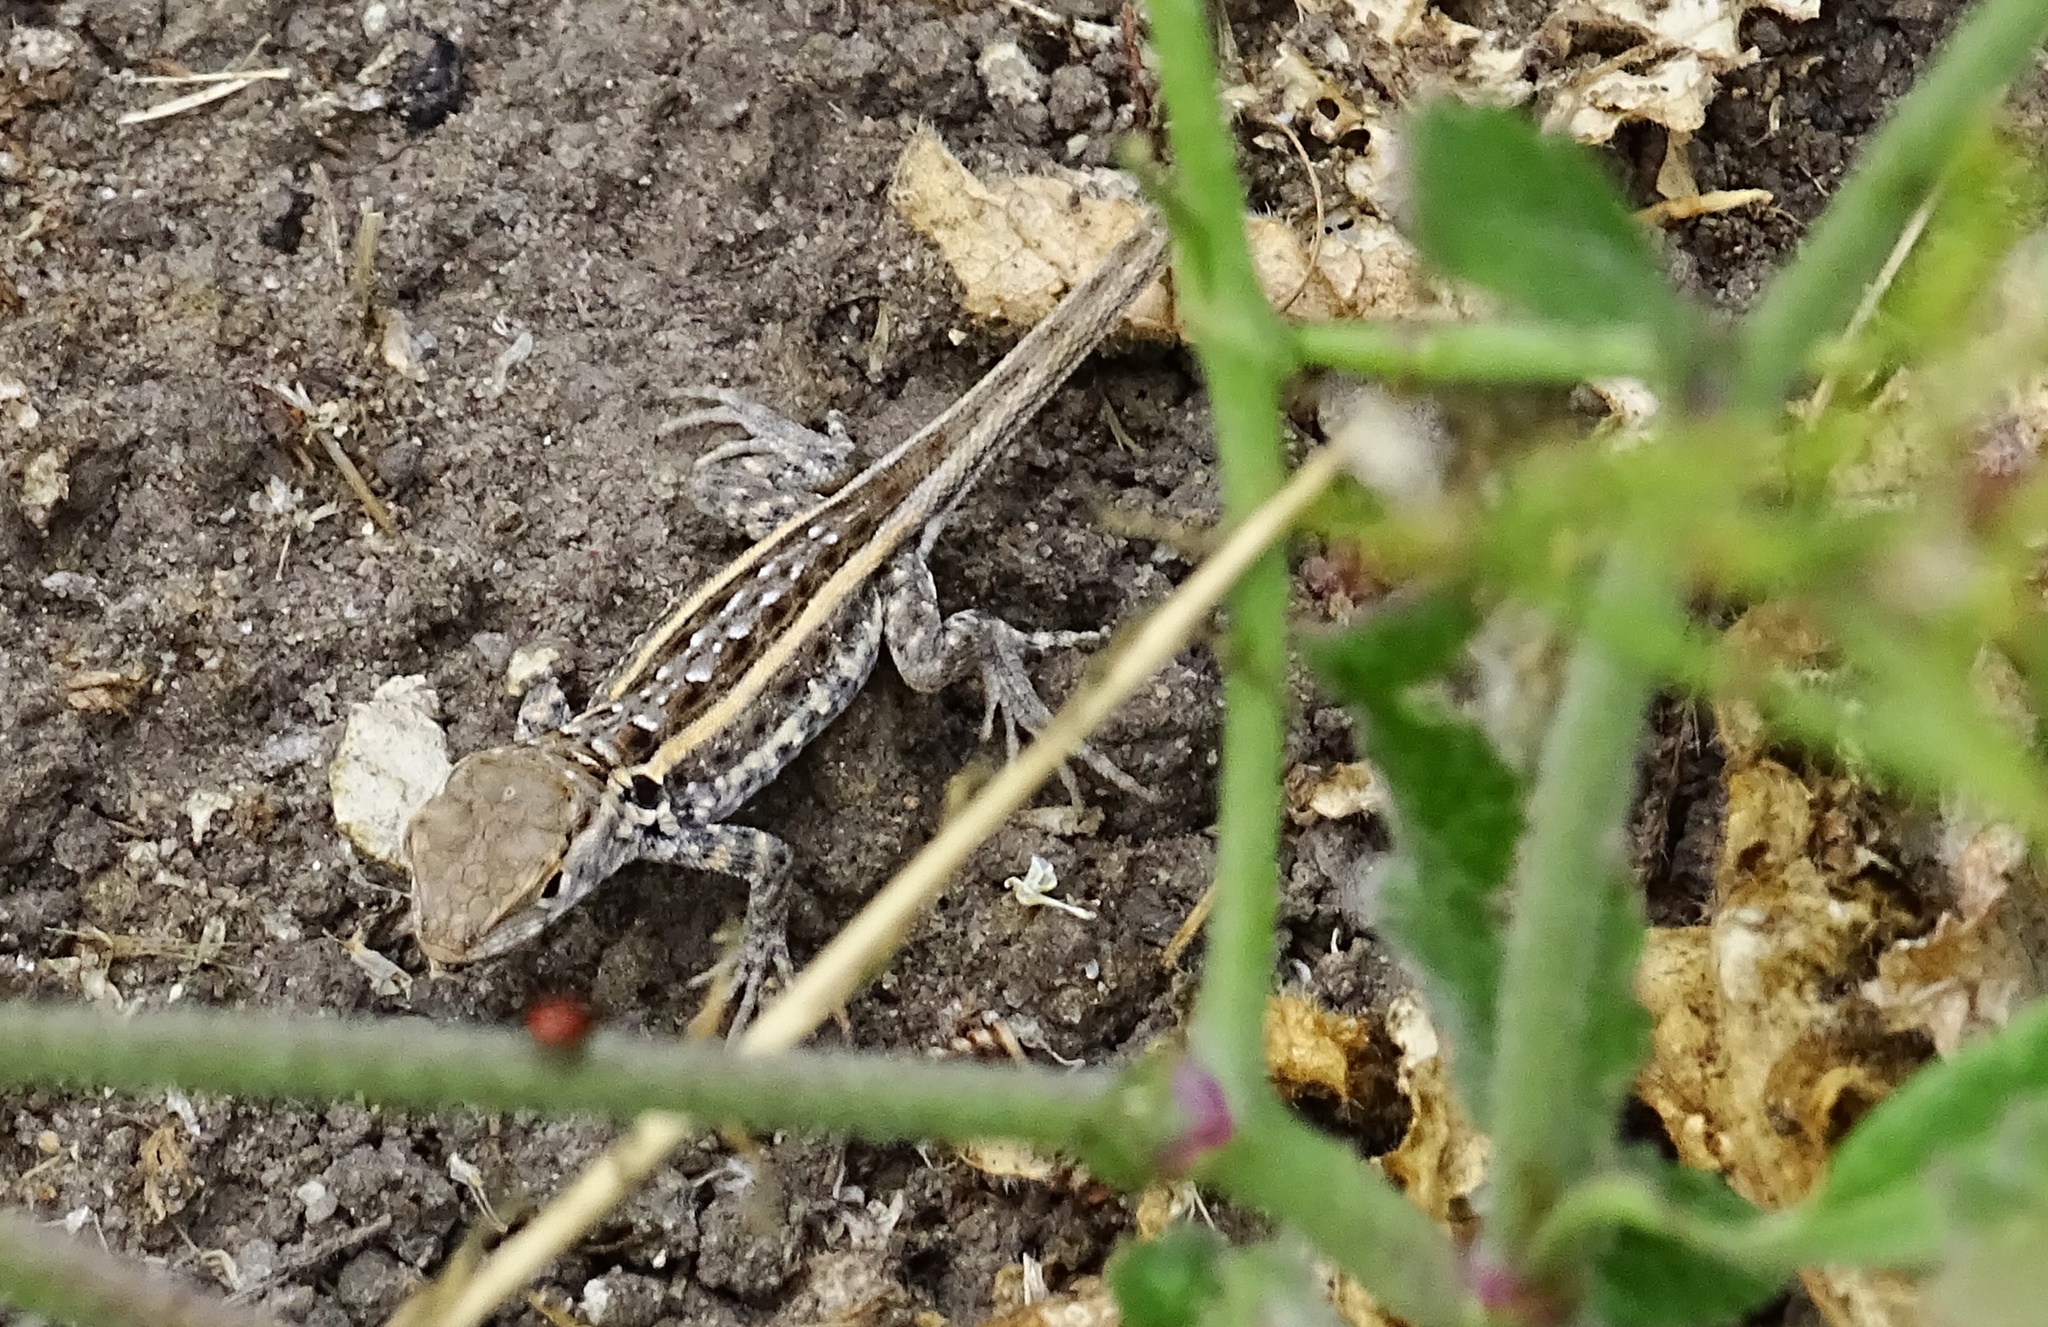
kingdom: Animalia
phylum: Chordata
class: Squamata
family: Phrynosomatidae
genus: Uta
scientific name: Uta stansburiana
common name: Side-blotched lizard
